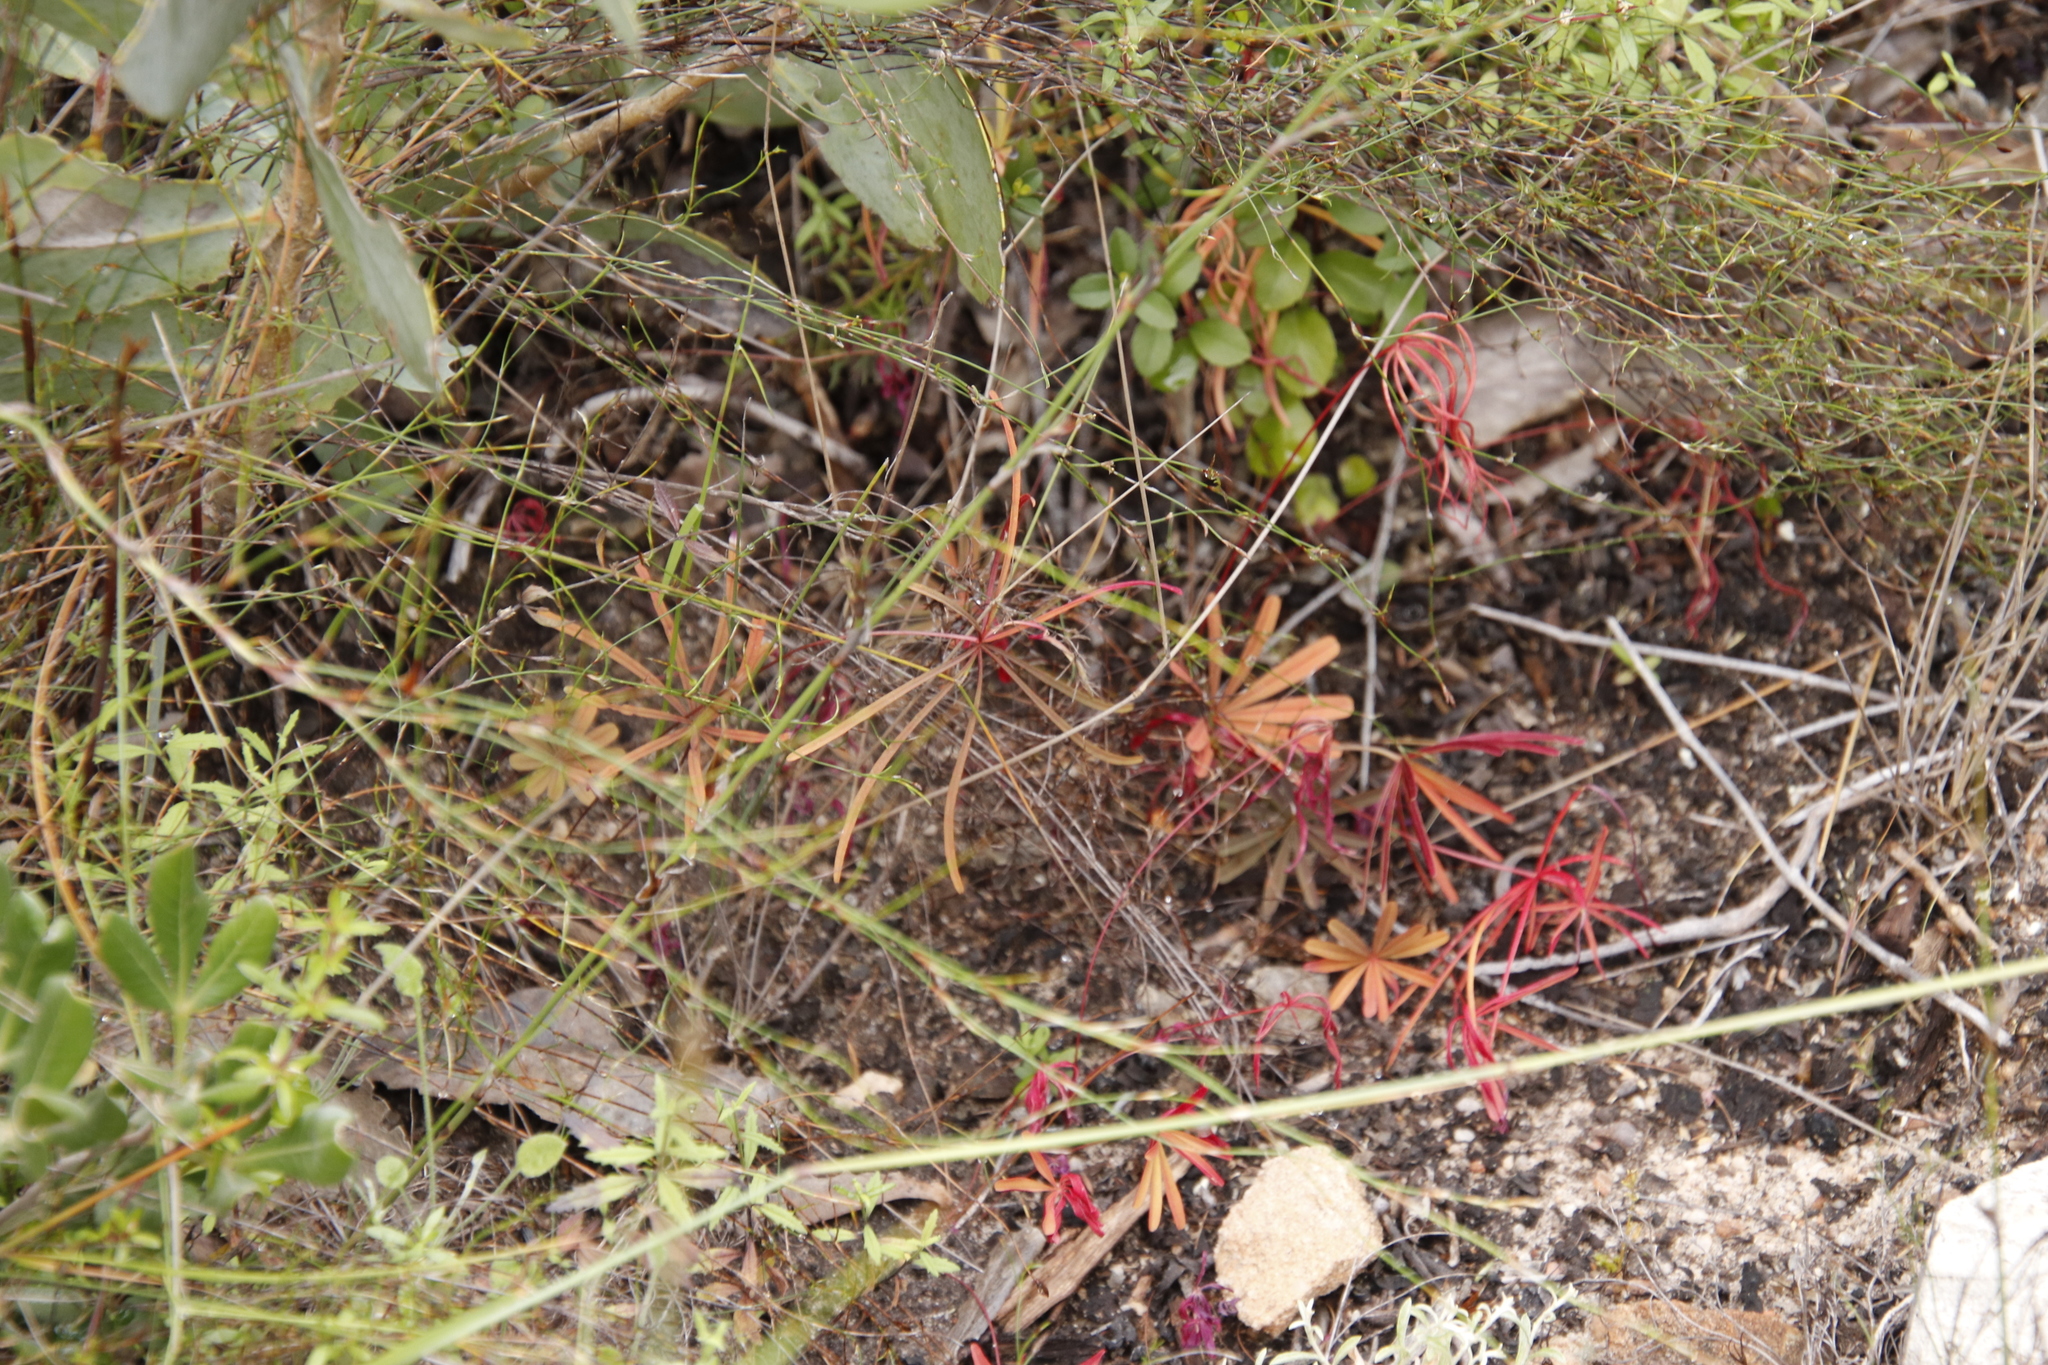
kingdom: Plantae
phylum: Tracheophyta
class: Magnoliopsida
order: Oxalidales
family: Oxalidaceae
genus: Oxalis
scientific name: Oxalis saltusbelli
